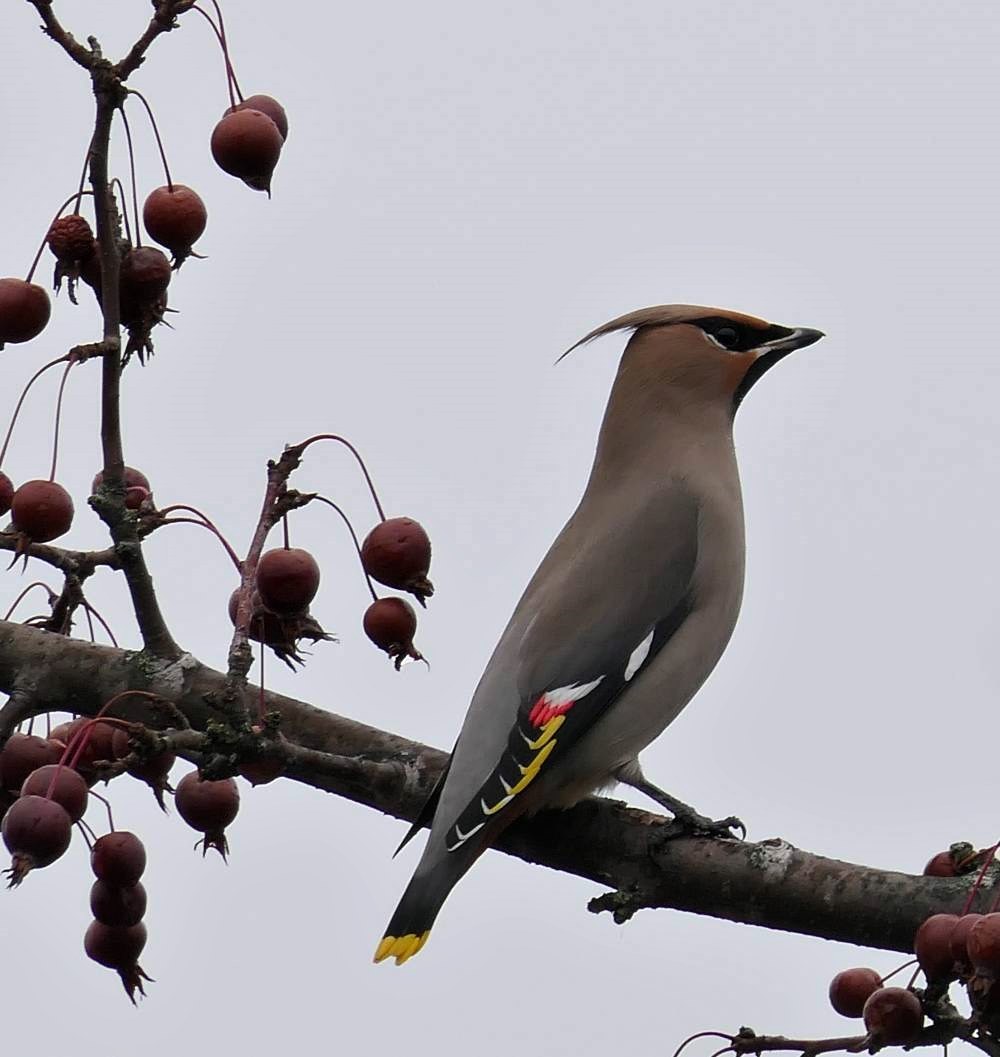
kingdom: Animalia
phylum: Chordata
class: Aves
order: Passeriformes
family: Bombycillidae
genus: Bombycilla
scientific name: Bombycilla garrulus
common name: Bohemian waxwing
